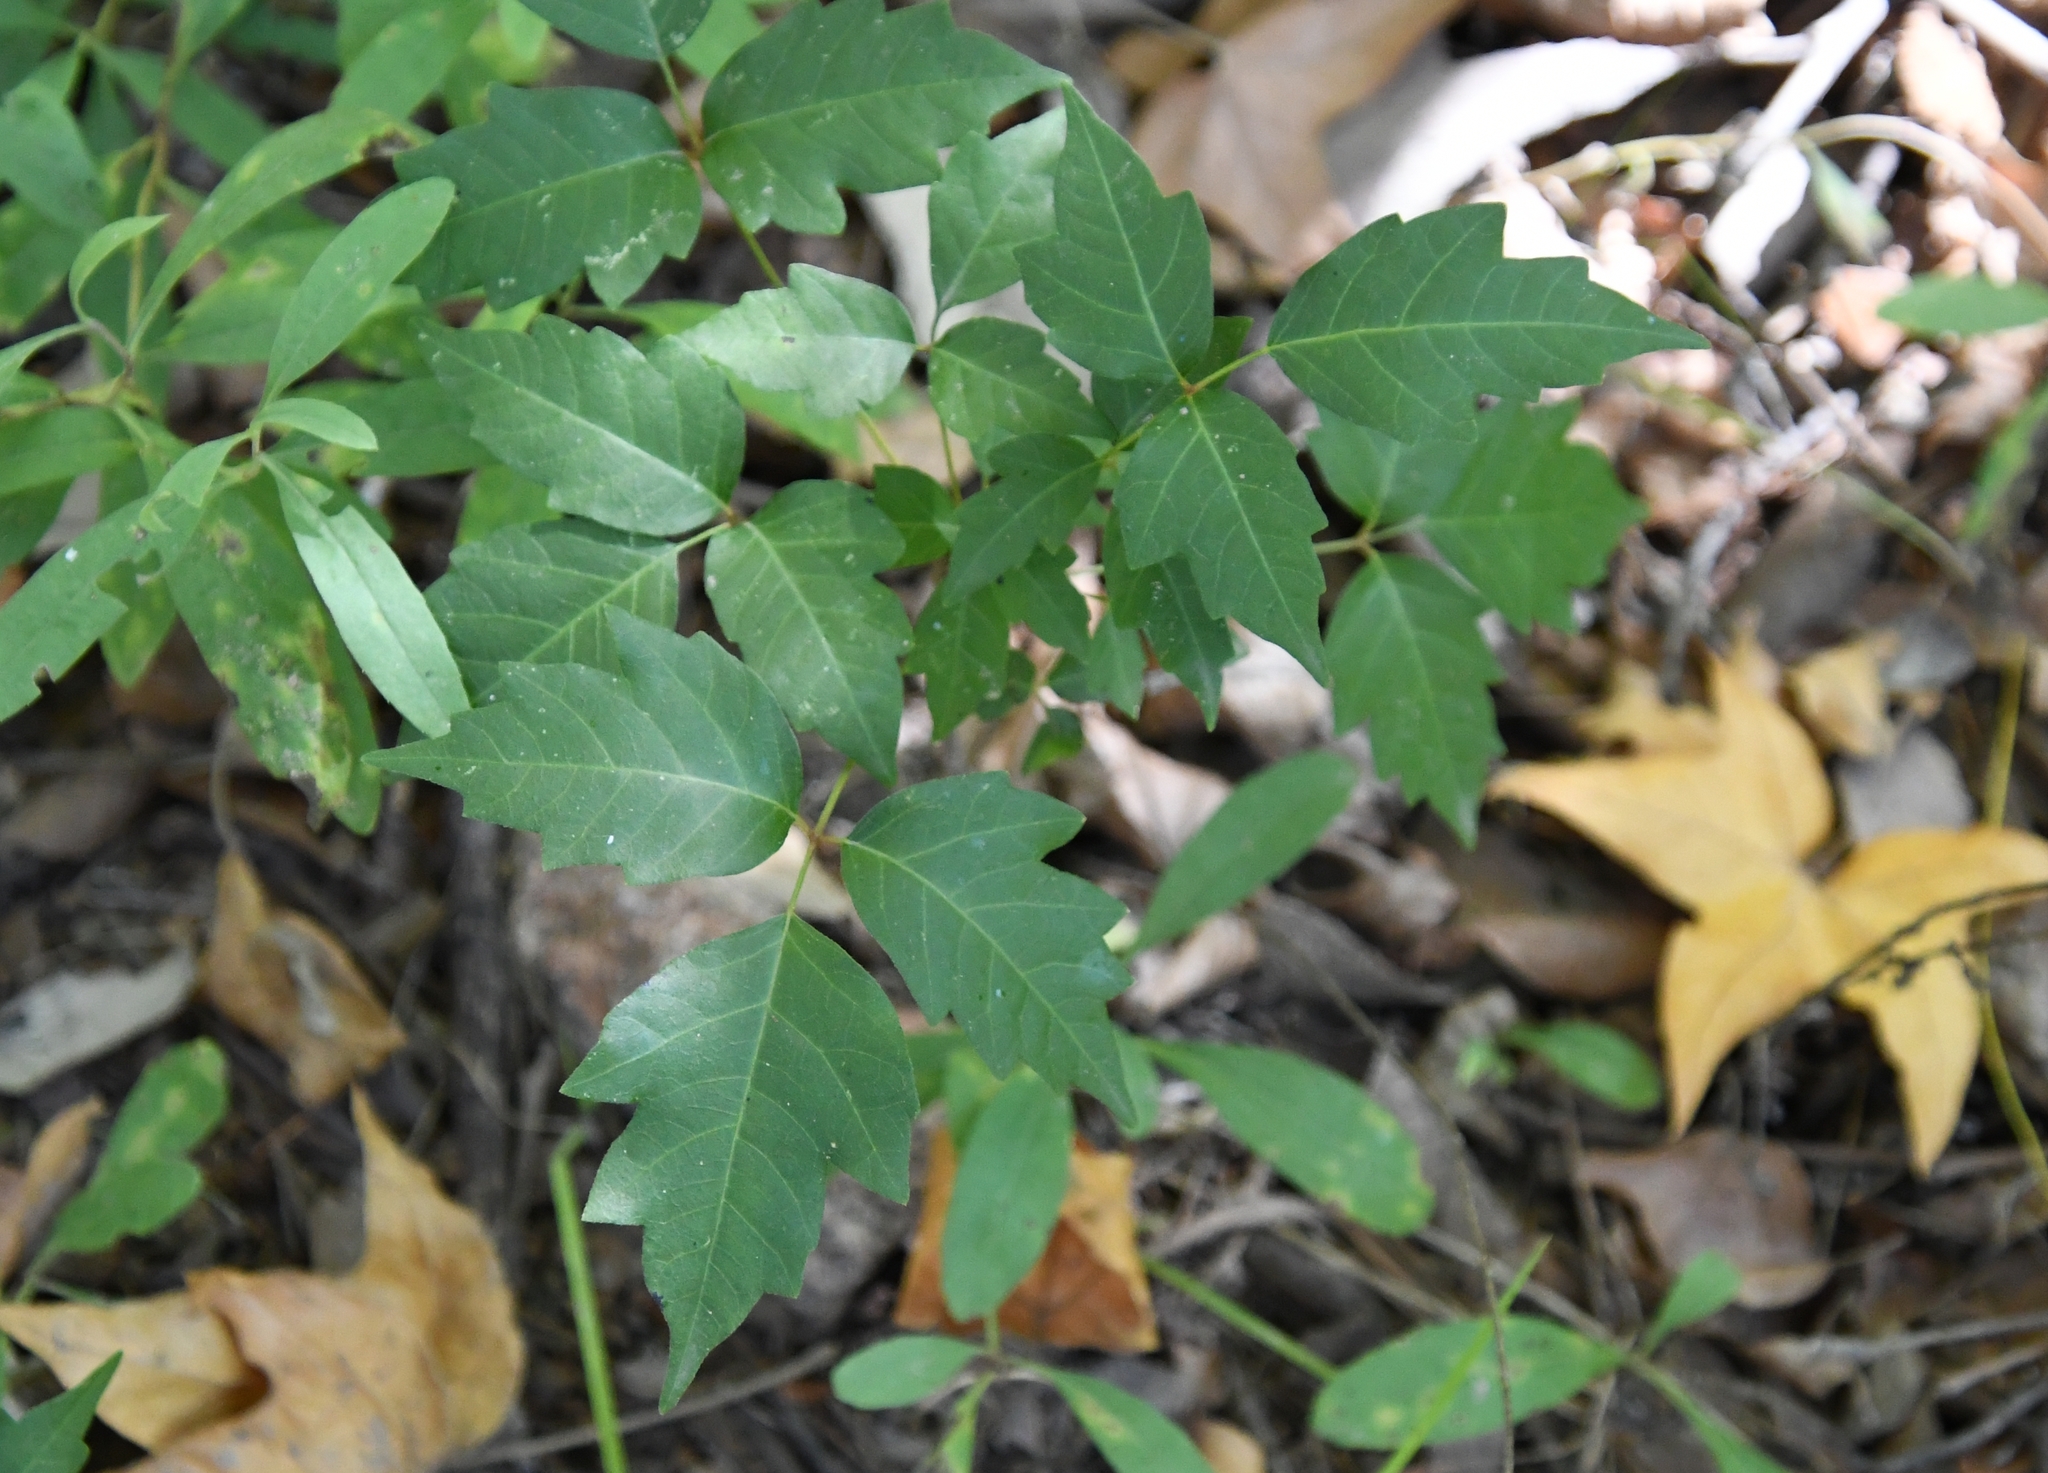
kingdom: Plantae
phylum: Tracheophyta
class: Magnoliopsida
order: Sapindales
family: Anacardiaceae
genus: Toxicodendron
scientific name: Toxicodendron radicans
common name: Poison ivy
